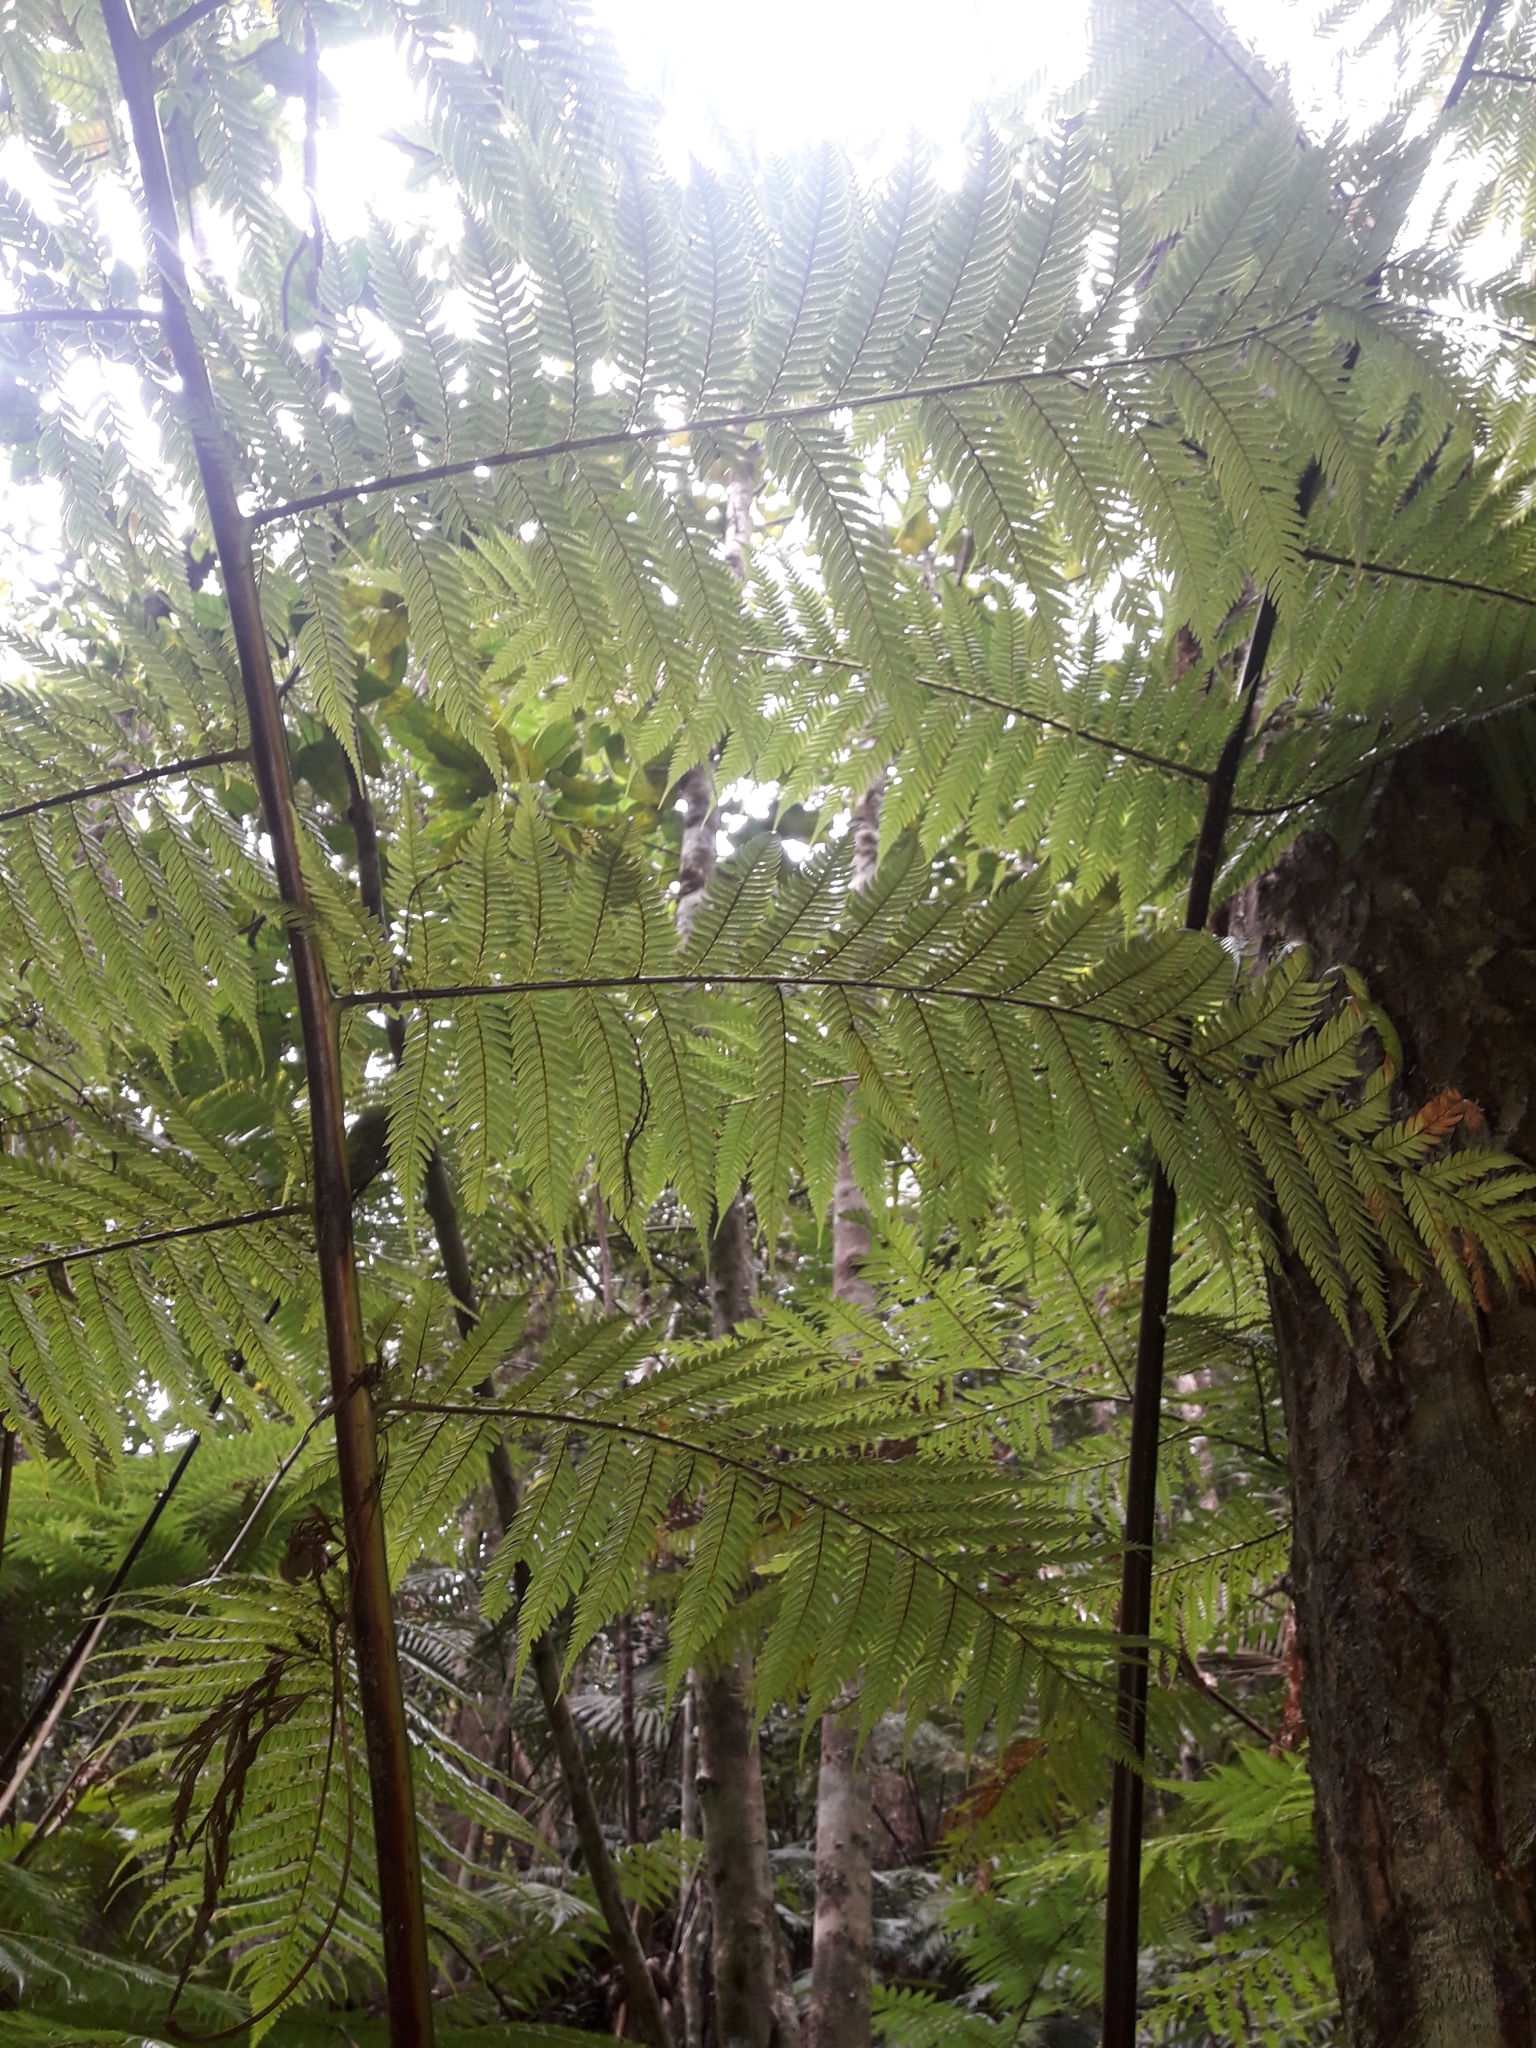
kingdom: Plantae
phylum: Tracheophyta
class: Polypodiopsida
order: Cyatheales
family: Dicksoniaceae
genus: Dicksonia
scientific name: Dicksonia perriei
